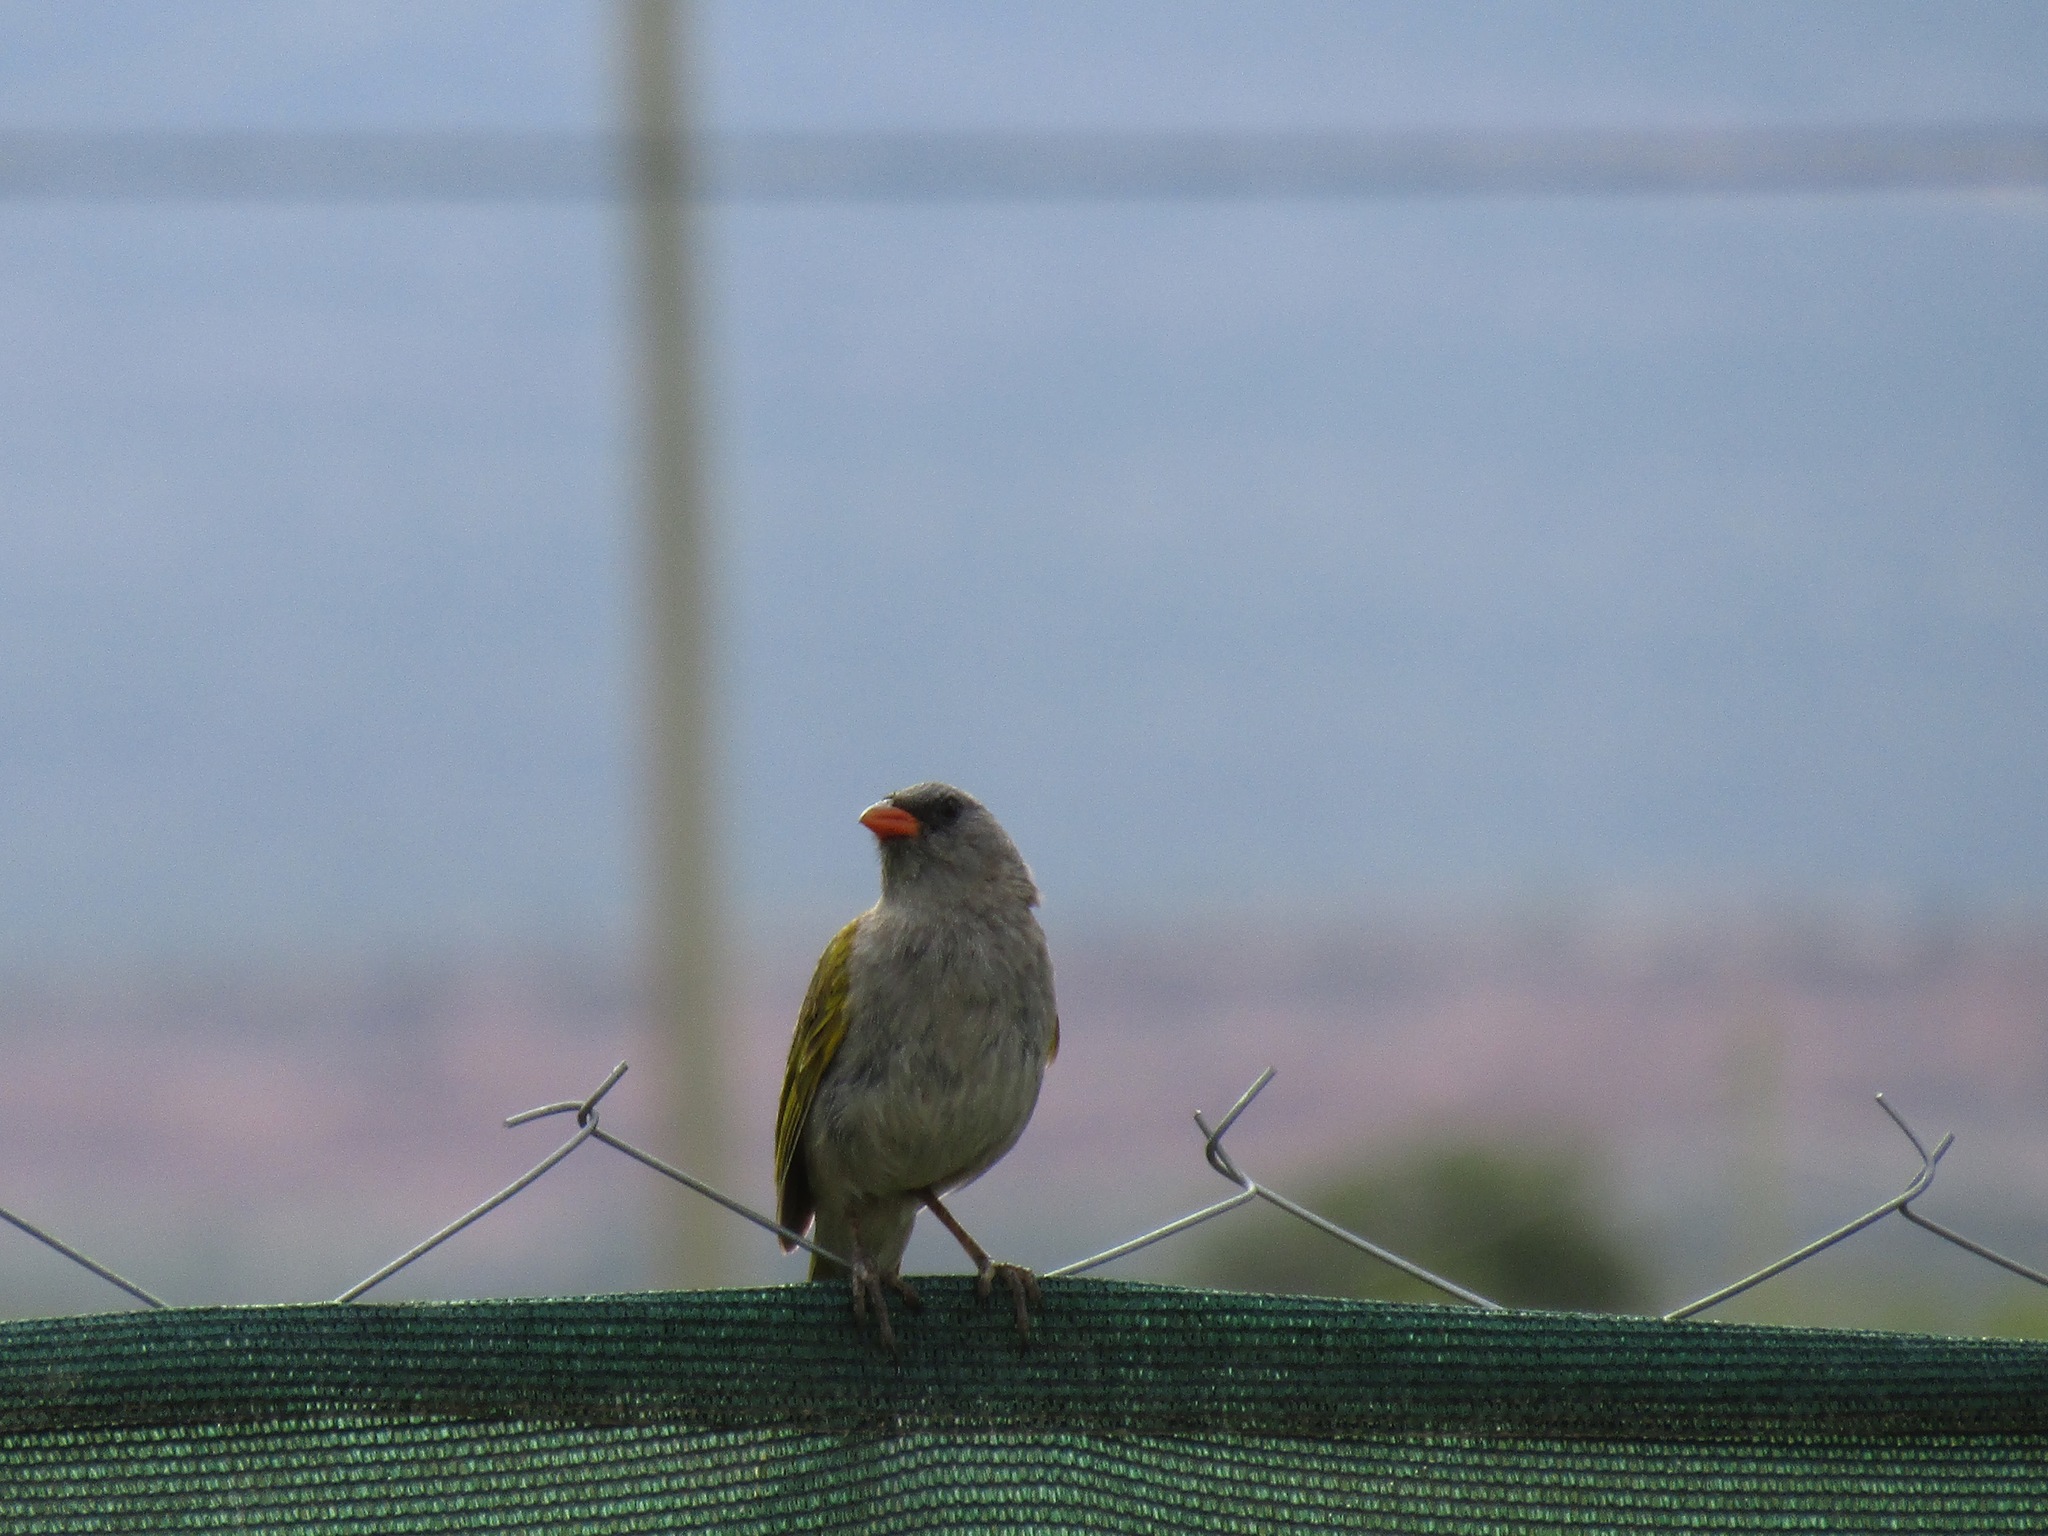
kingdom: Animalia
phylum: Chordata
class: Aves
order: Passeriformes
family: Thraupidae
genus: Embernagra
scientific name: Embernagra platensis
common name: Pampa finch
